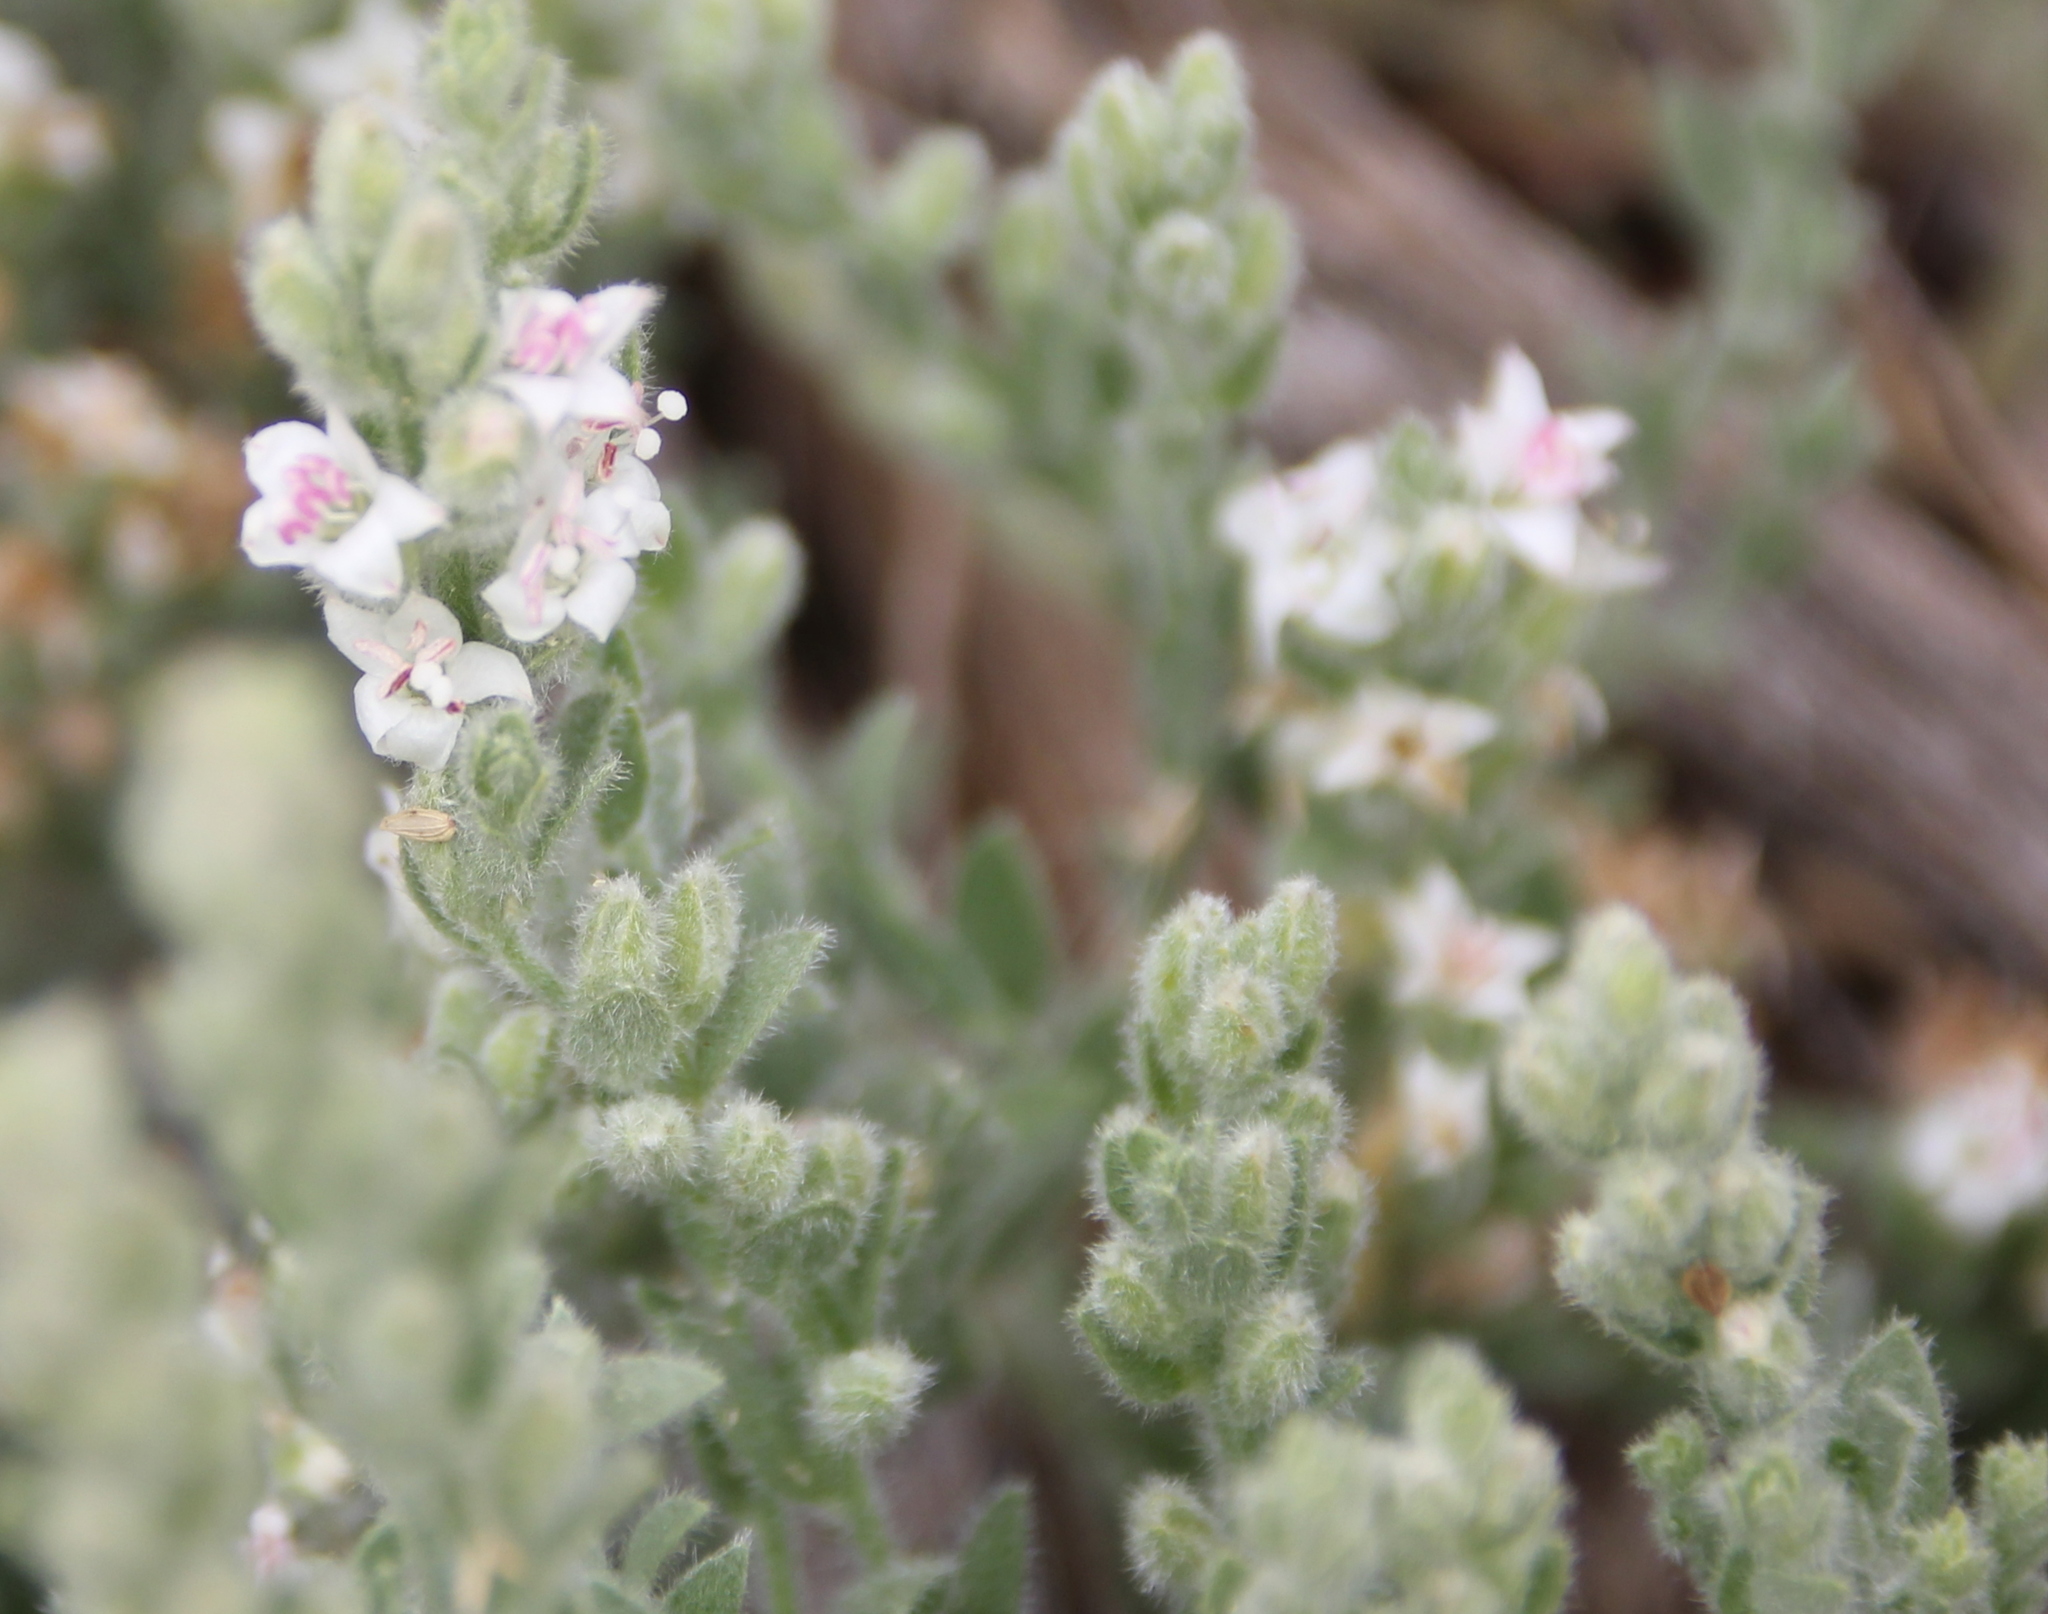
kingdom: Plantae
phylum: Tracheophyta
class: Magnoliopsida
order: Solanales
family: Convolvulaceae
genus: Cressa
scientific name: Cressa truxillensis
